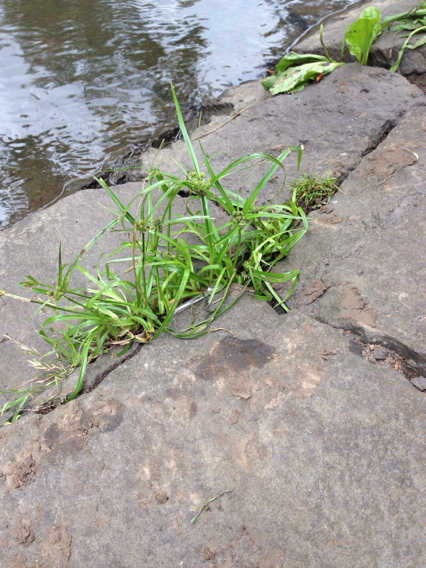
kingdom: Plantae
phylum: Tracheophyta
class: Liliopsida
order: Poales
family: Cyperaceae
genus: Cyperus
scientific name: Cyperus eragrostis
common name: Tall flatsedge
